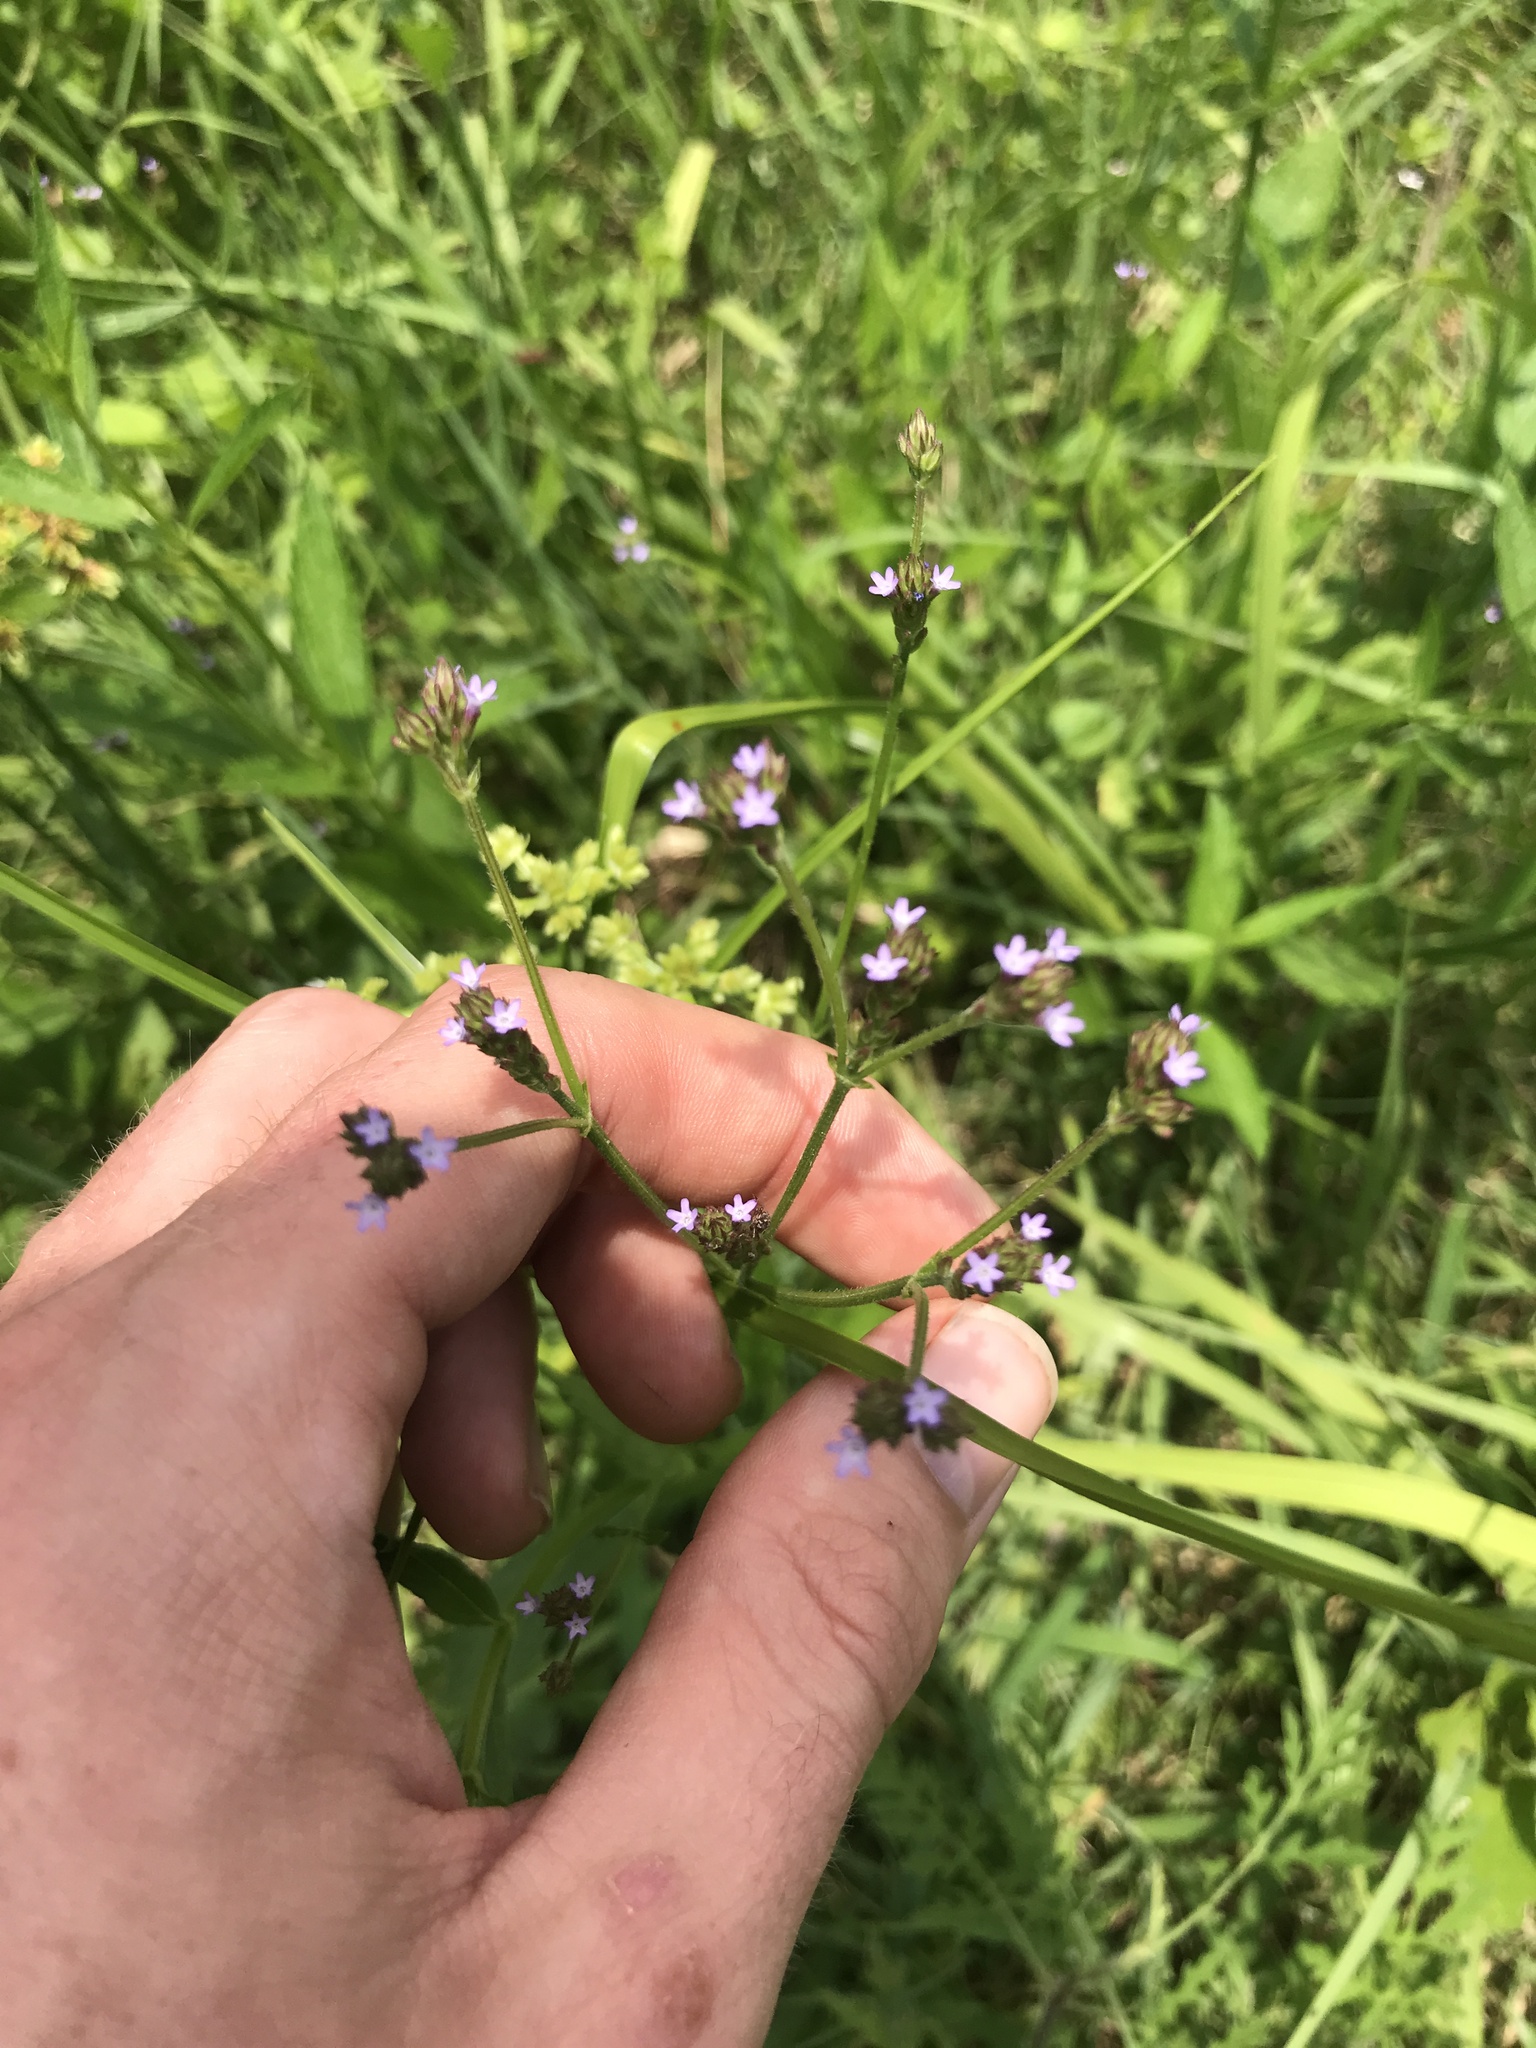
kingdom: Plantae
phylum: Tracheophyta
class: Magnoliopsida
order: Lamiales
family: Verbenaceae
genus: Verbena
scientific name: Verbena brasiliensis
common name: Brazilian vervain
